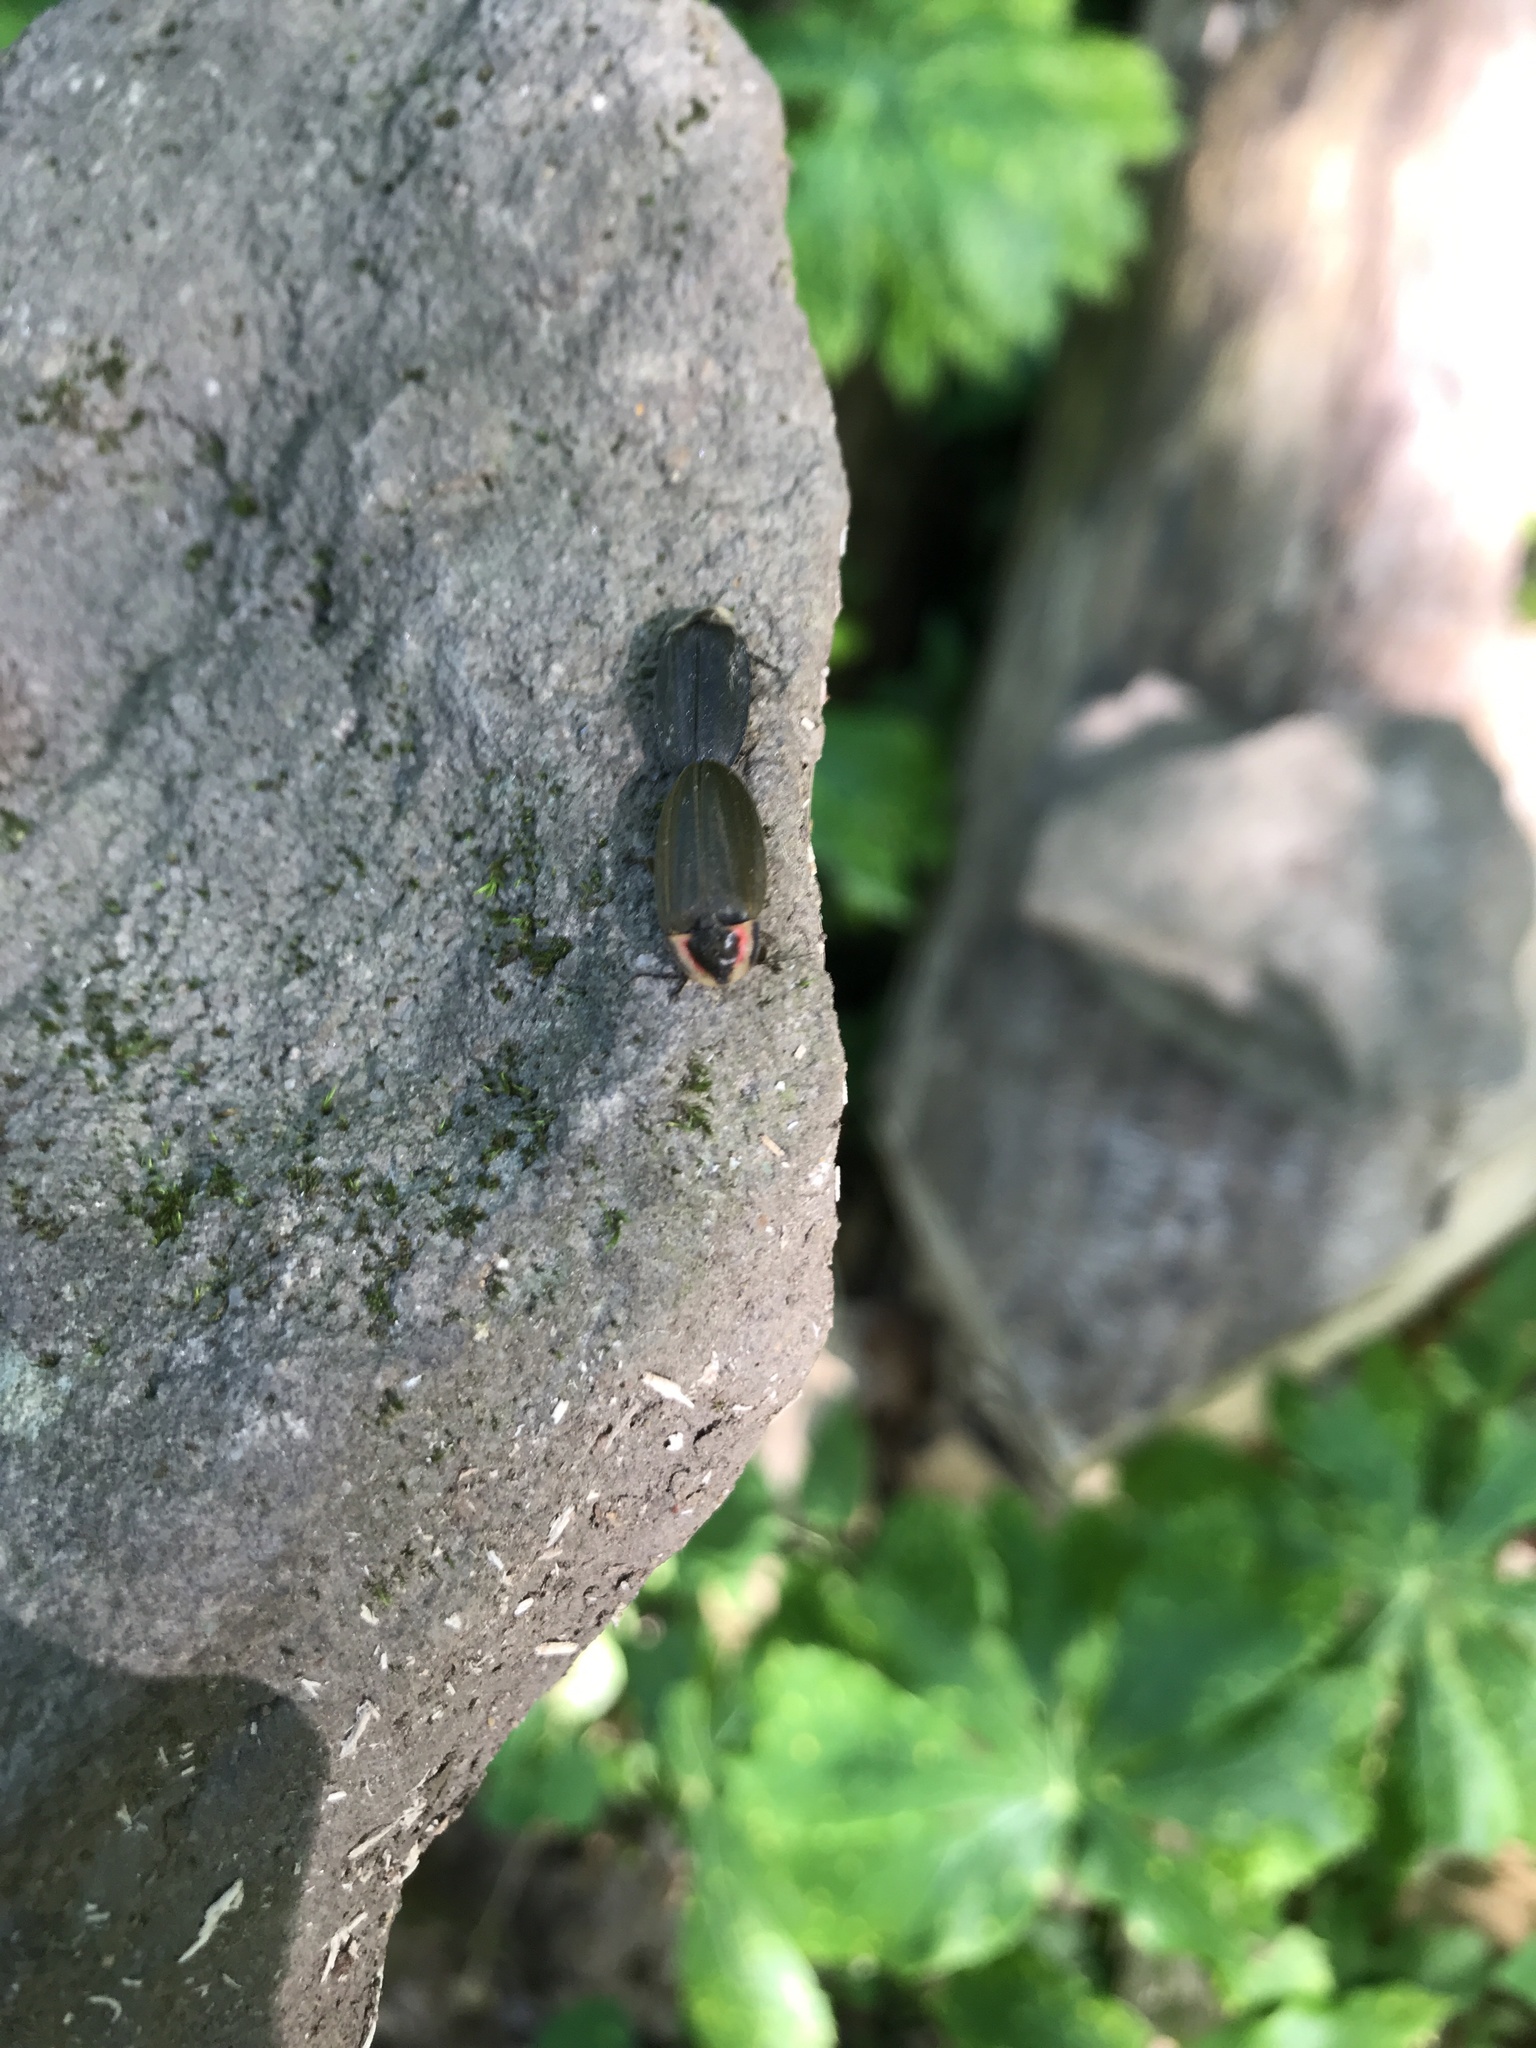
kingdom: Animalia
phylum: Arthropoda
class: Insecta
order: Coleoptera
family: Lampyridae
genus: Photinus
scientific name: Photinus corrusca
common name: Winter firefly
